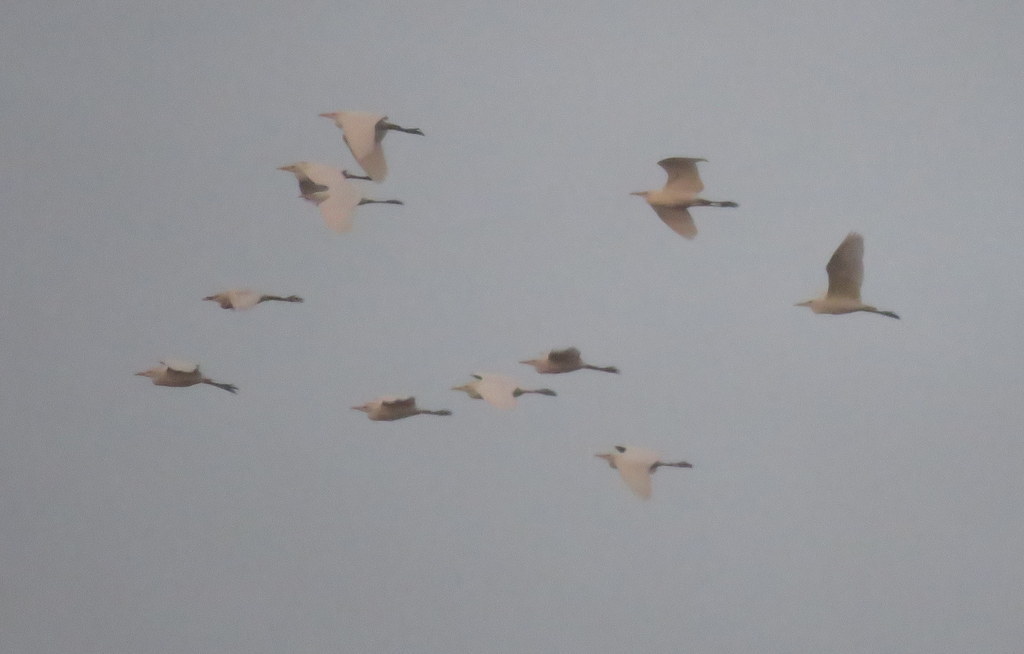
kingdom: Animalia
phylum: Chordata
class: Aves
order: Pelecaniformes
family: Ardeidae
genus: Bubulcus
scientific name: Bubulcus ibis
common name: Cattle egret
